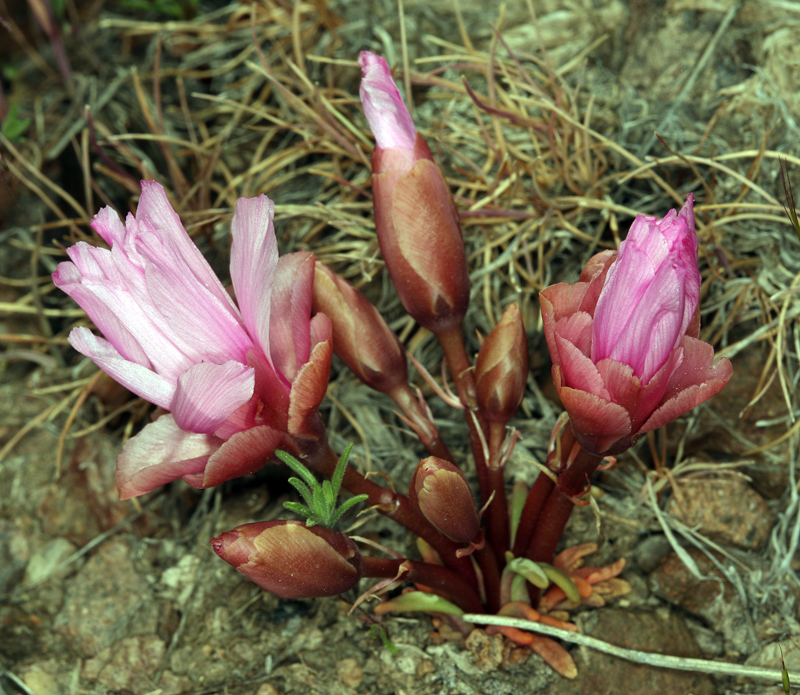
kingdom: Plantae
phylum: Tracheophyta
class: Magnoliopsida
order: Caryophyllales
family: Montiaceae
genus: Lewisia
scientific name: Lewisia rediviva
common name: Bitter-root
